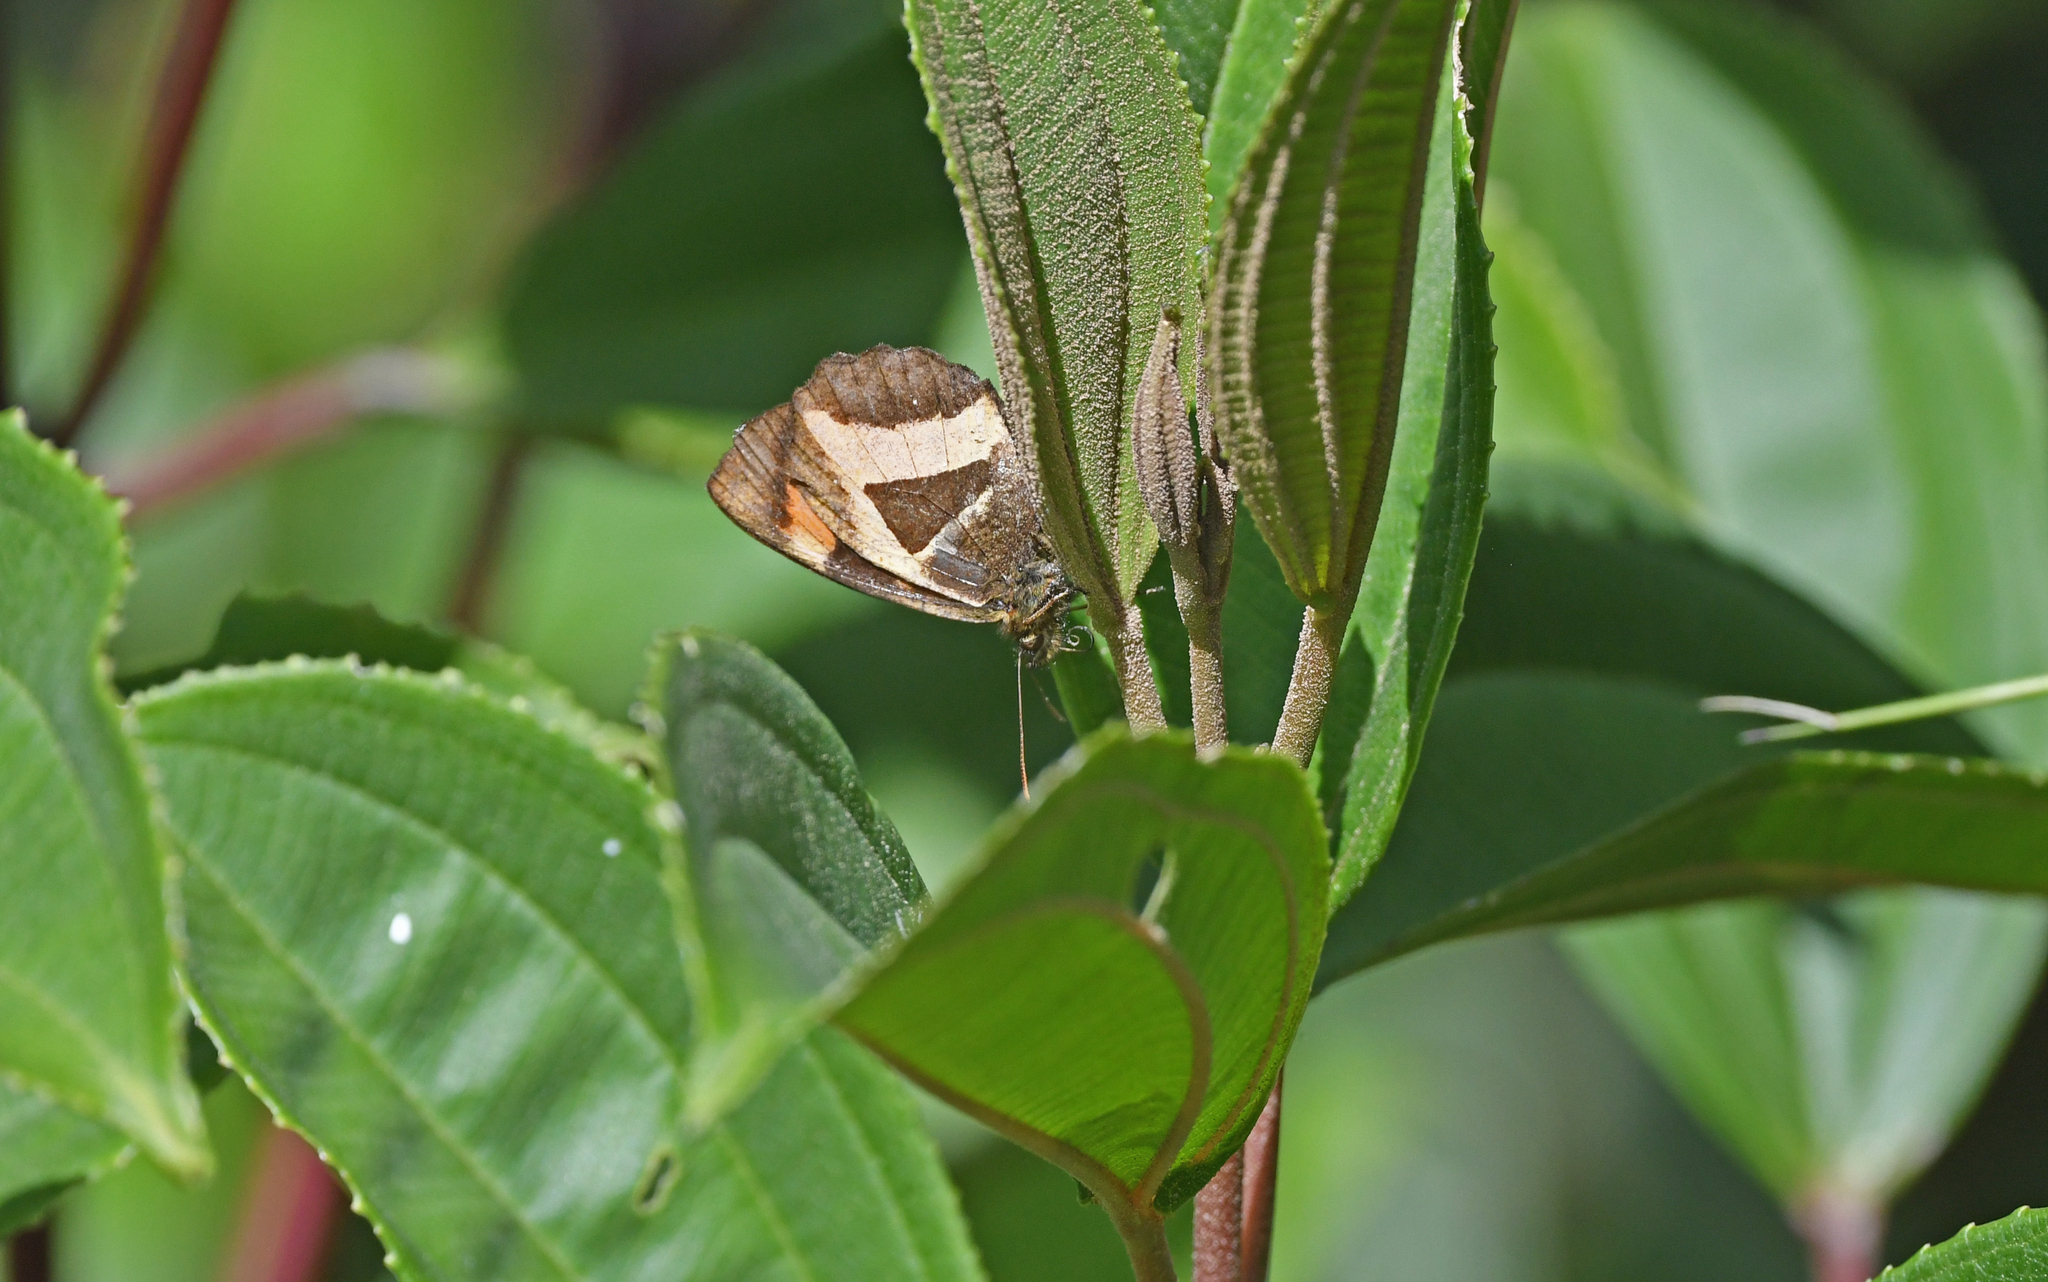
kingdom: Animalia
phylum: Arthropoda
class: Insecta
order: Lepidoptera
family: Nymphalidae
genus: Neopedaliodes
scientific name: Neopedaliodes
